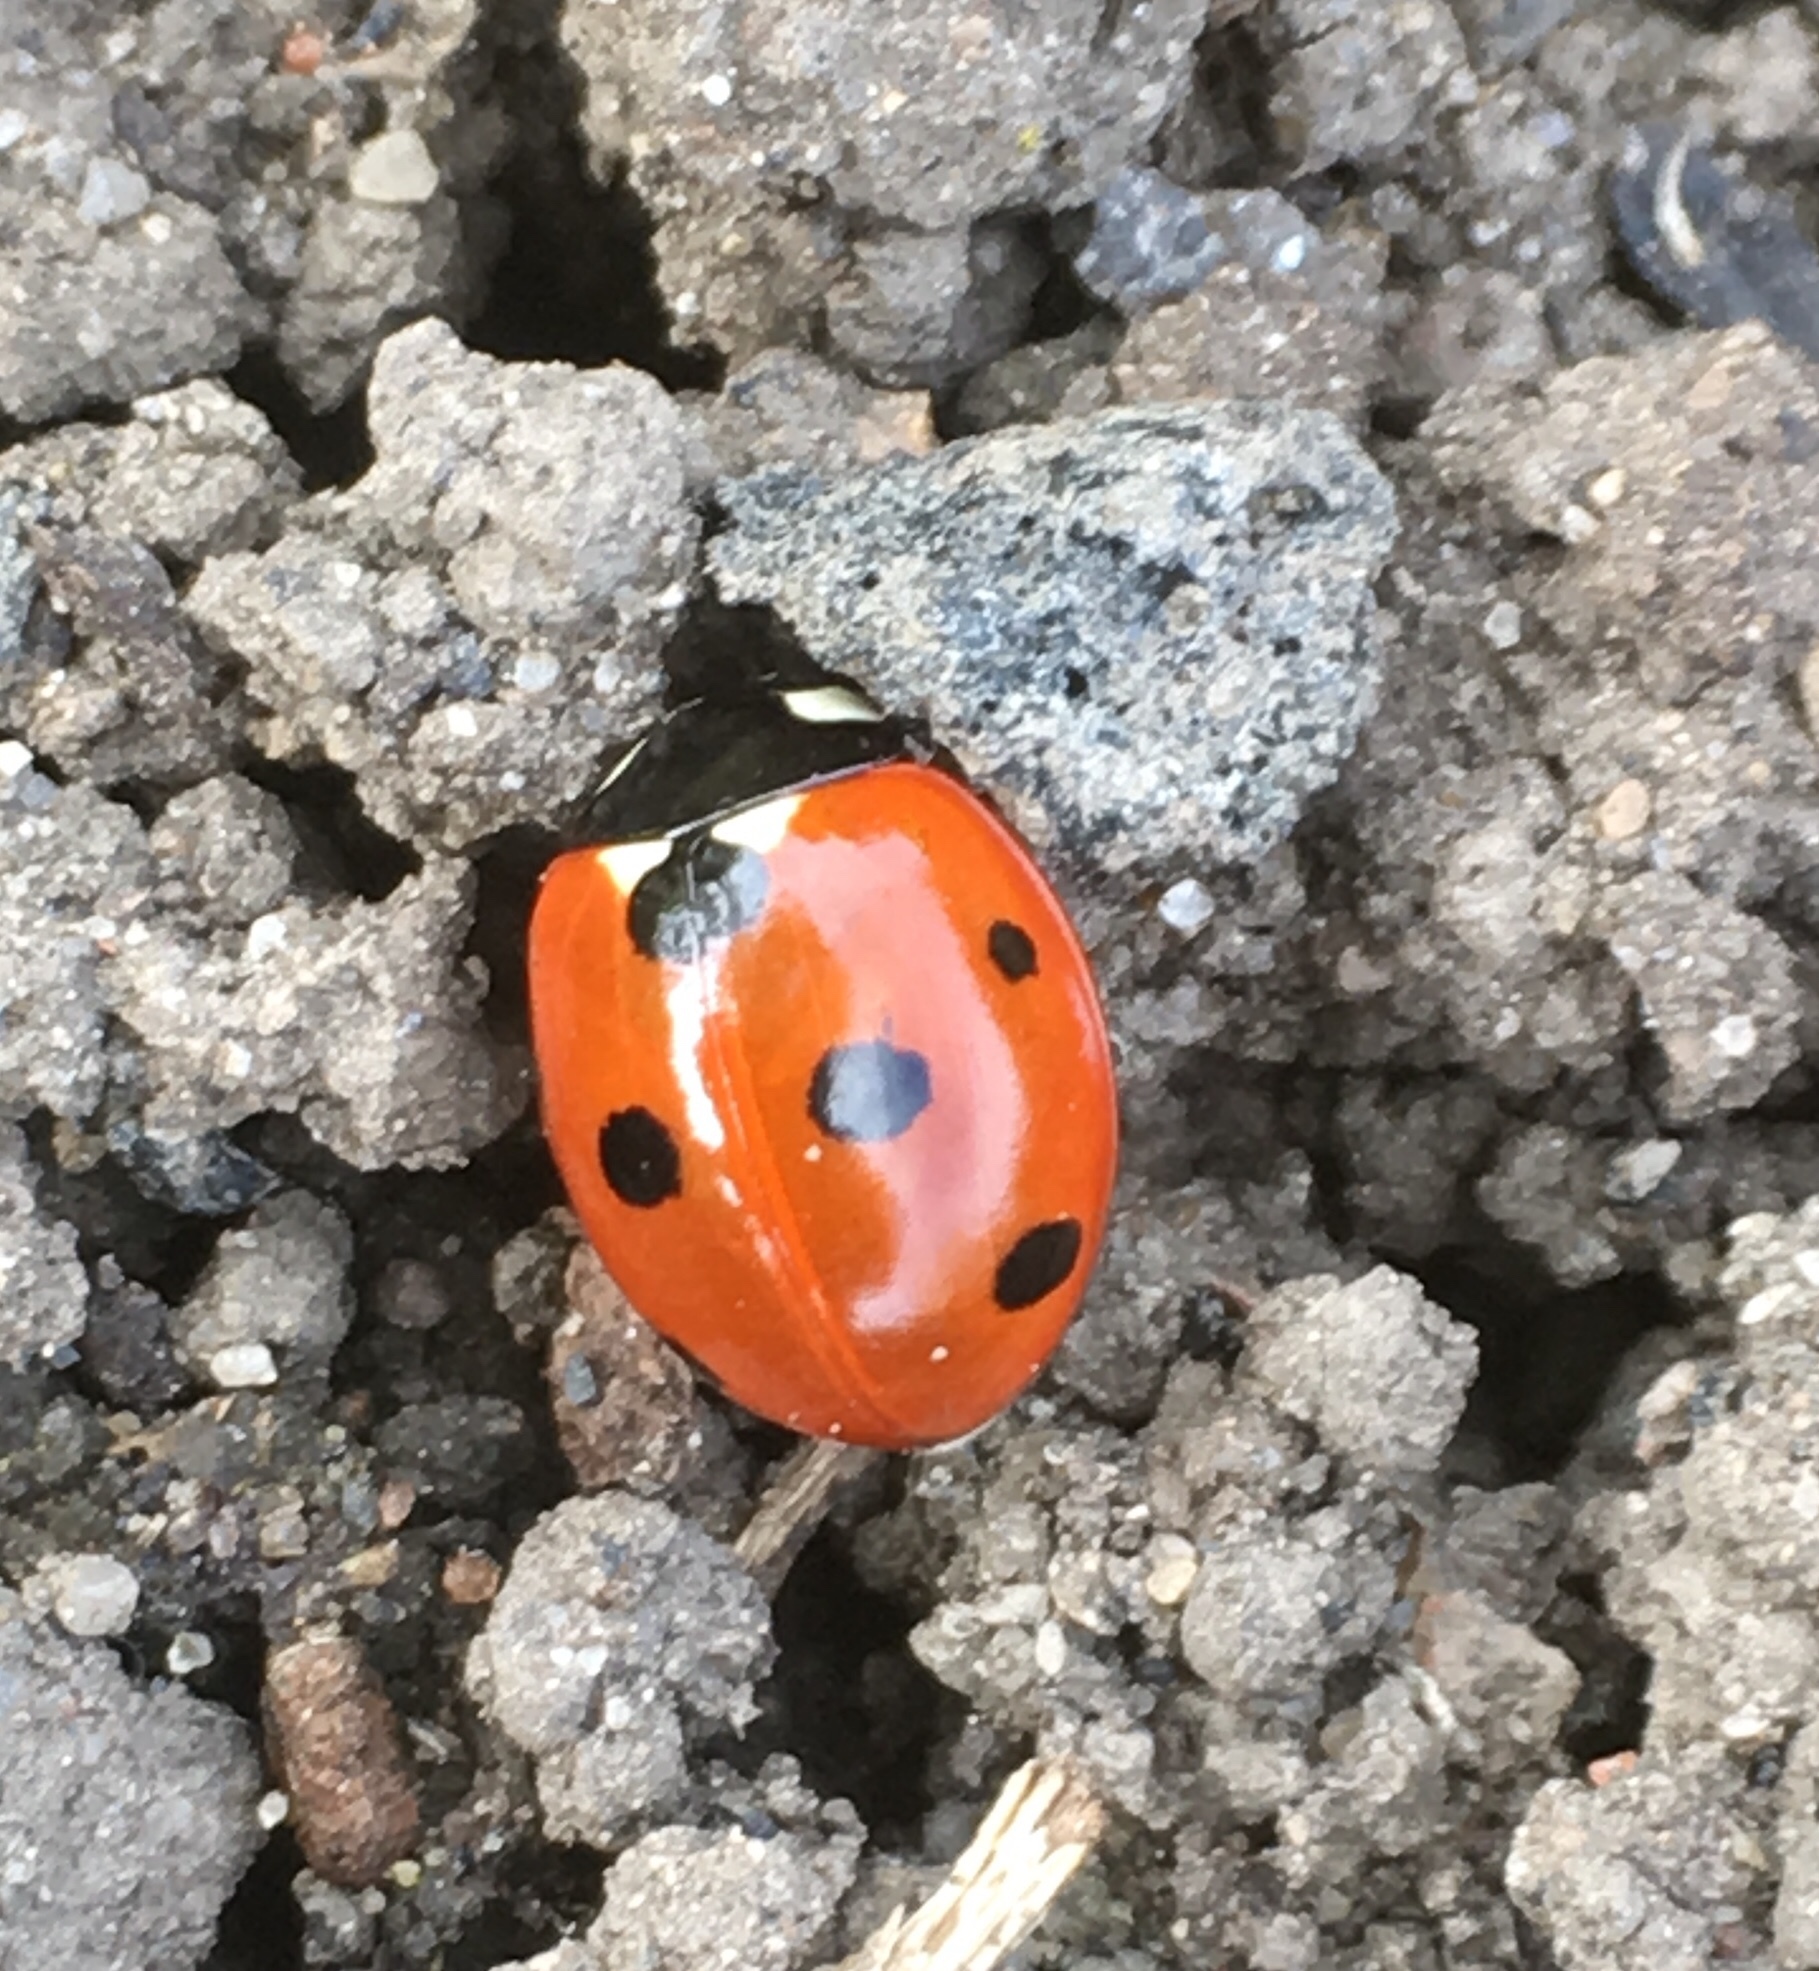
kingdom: Animalia
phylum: Arthropoda
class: Insecta
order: Coleoptera
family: Coccinellidae
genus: Coccinella
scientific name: Coccinella septempunctata
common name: Sevenspotted lady beetle
